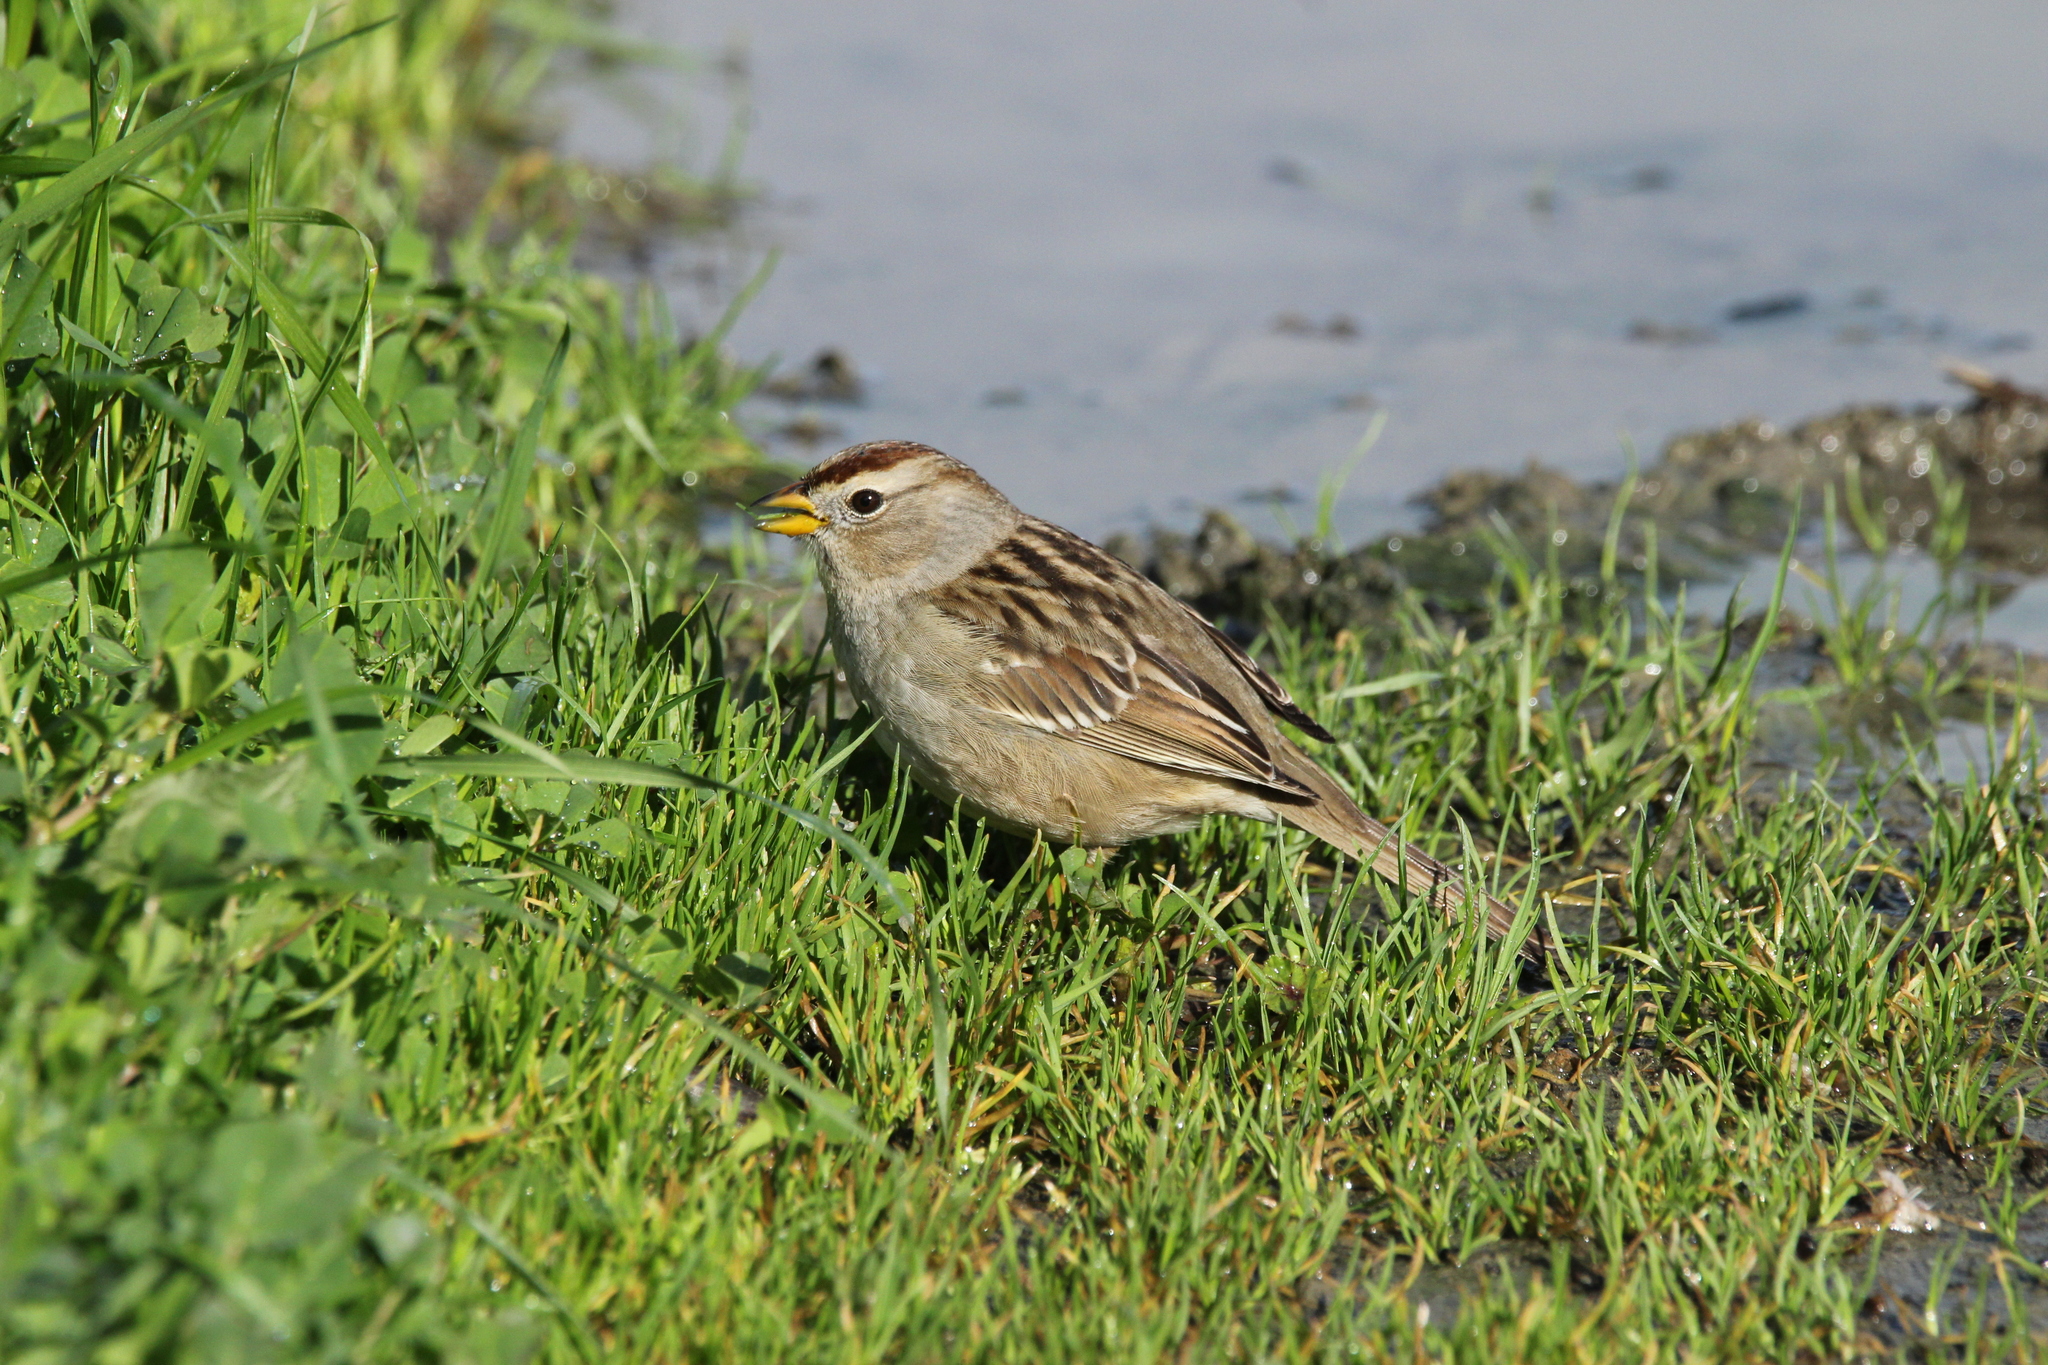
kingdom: Animalia
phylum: Chordata
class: Aves
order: Passeriformes
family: Passerellidae
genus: Zonotrichia
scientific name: Zonotrichia leucophrys
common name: White-crowned sparrow
